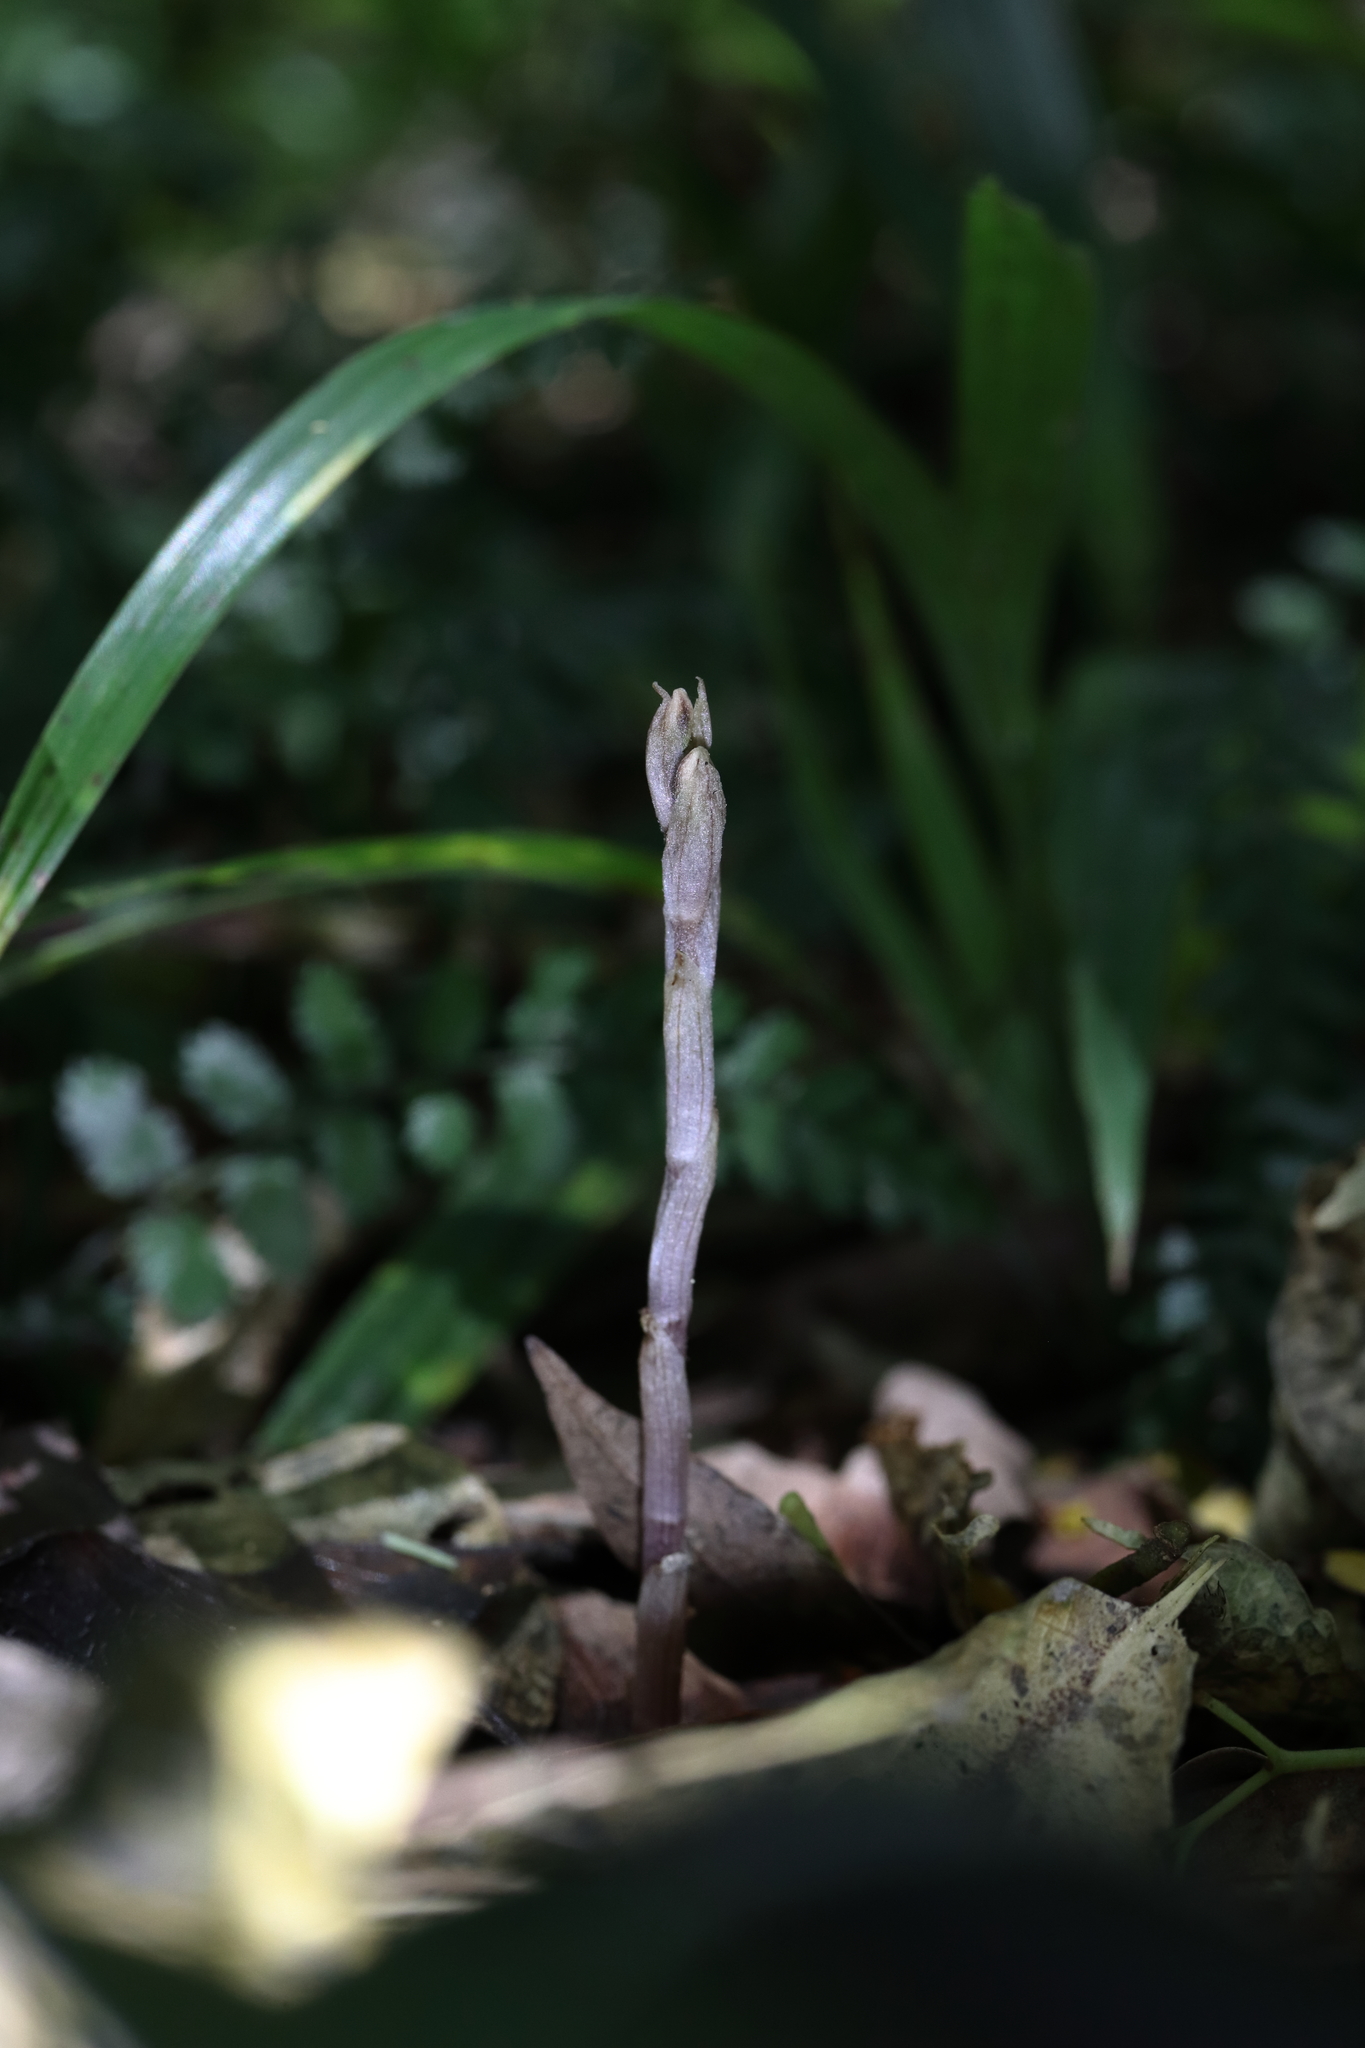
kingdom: Plantae
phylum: Tracheophyta
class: Liliopsida
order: Asparagales
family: Orchidaceae
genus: Danhatchia
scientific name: Danhatchia australis
